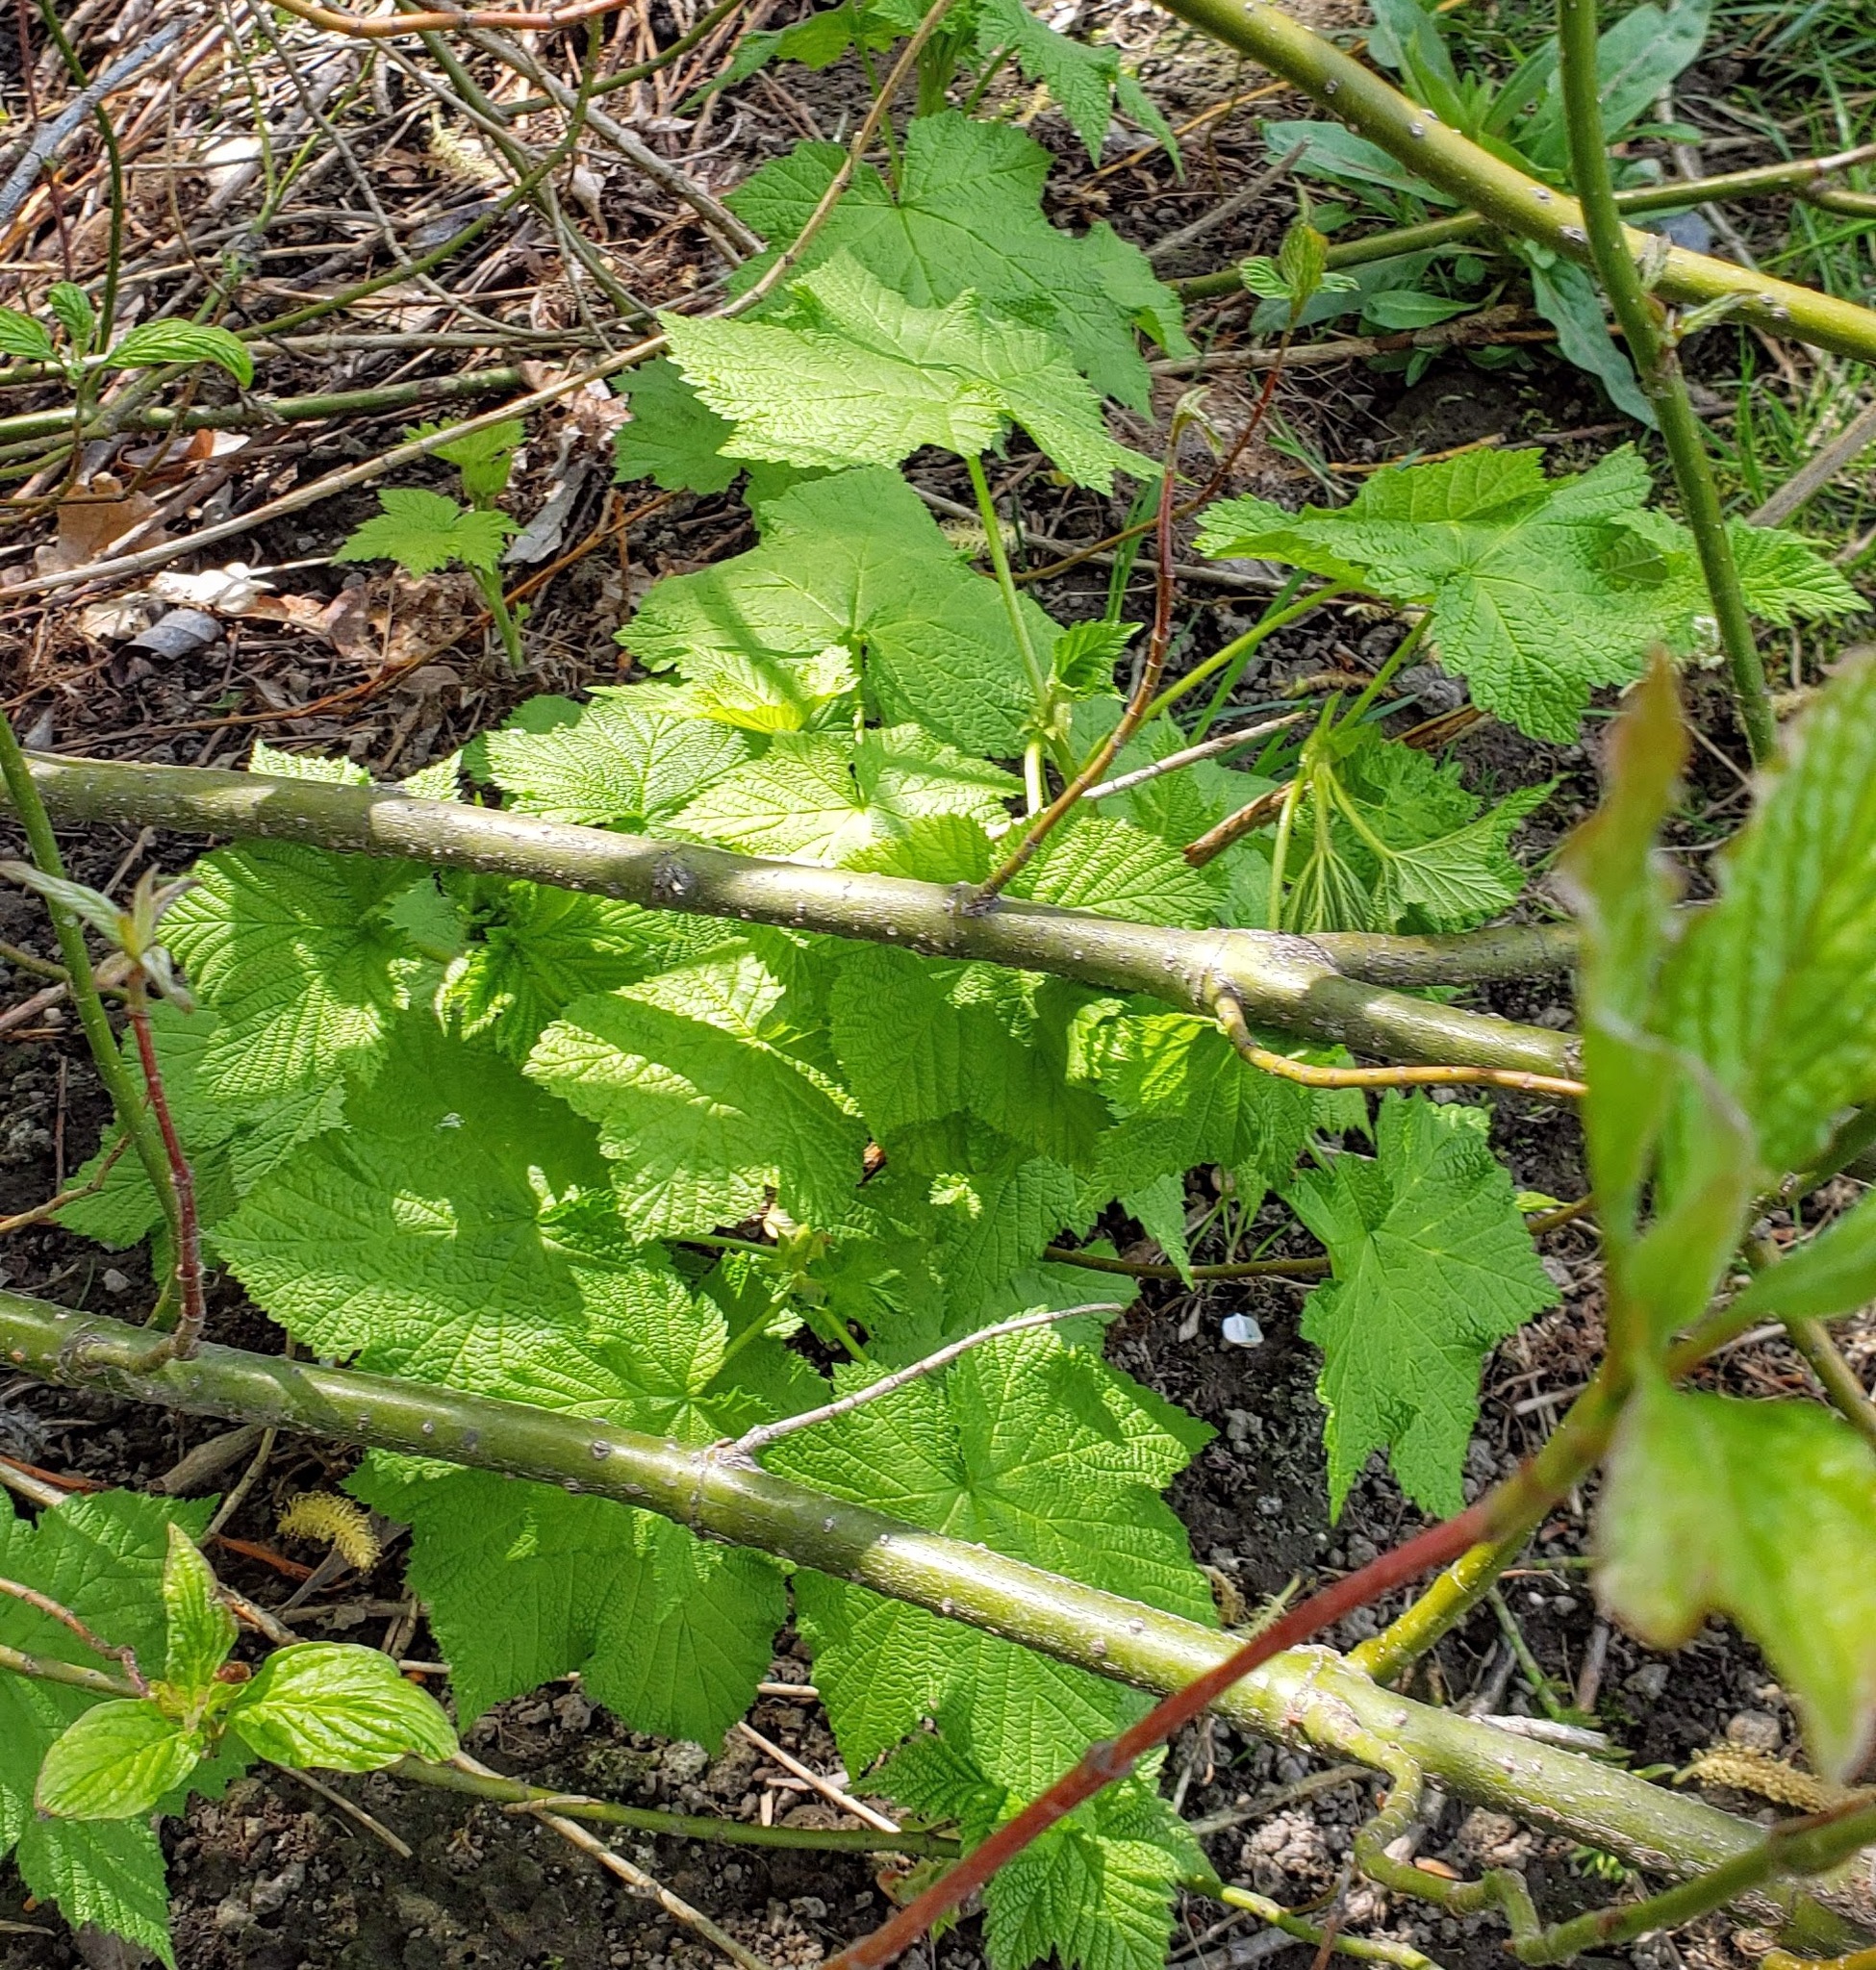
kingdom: Plantae
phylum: Tracheophyta
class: Magnoliopsida
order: Rosales
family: Rosaceae
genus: Rubus
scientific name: Rubus parviflorus
